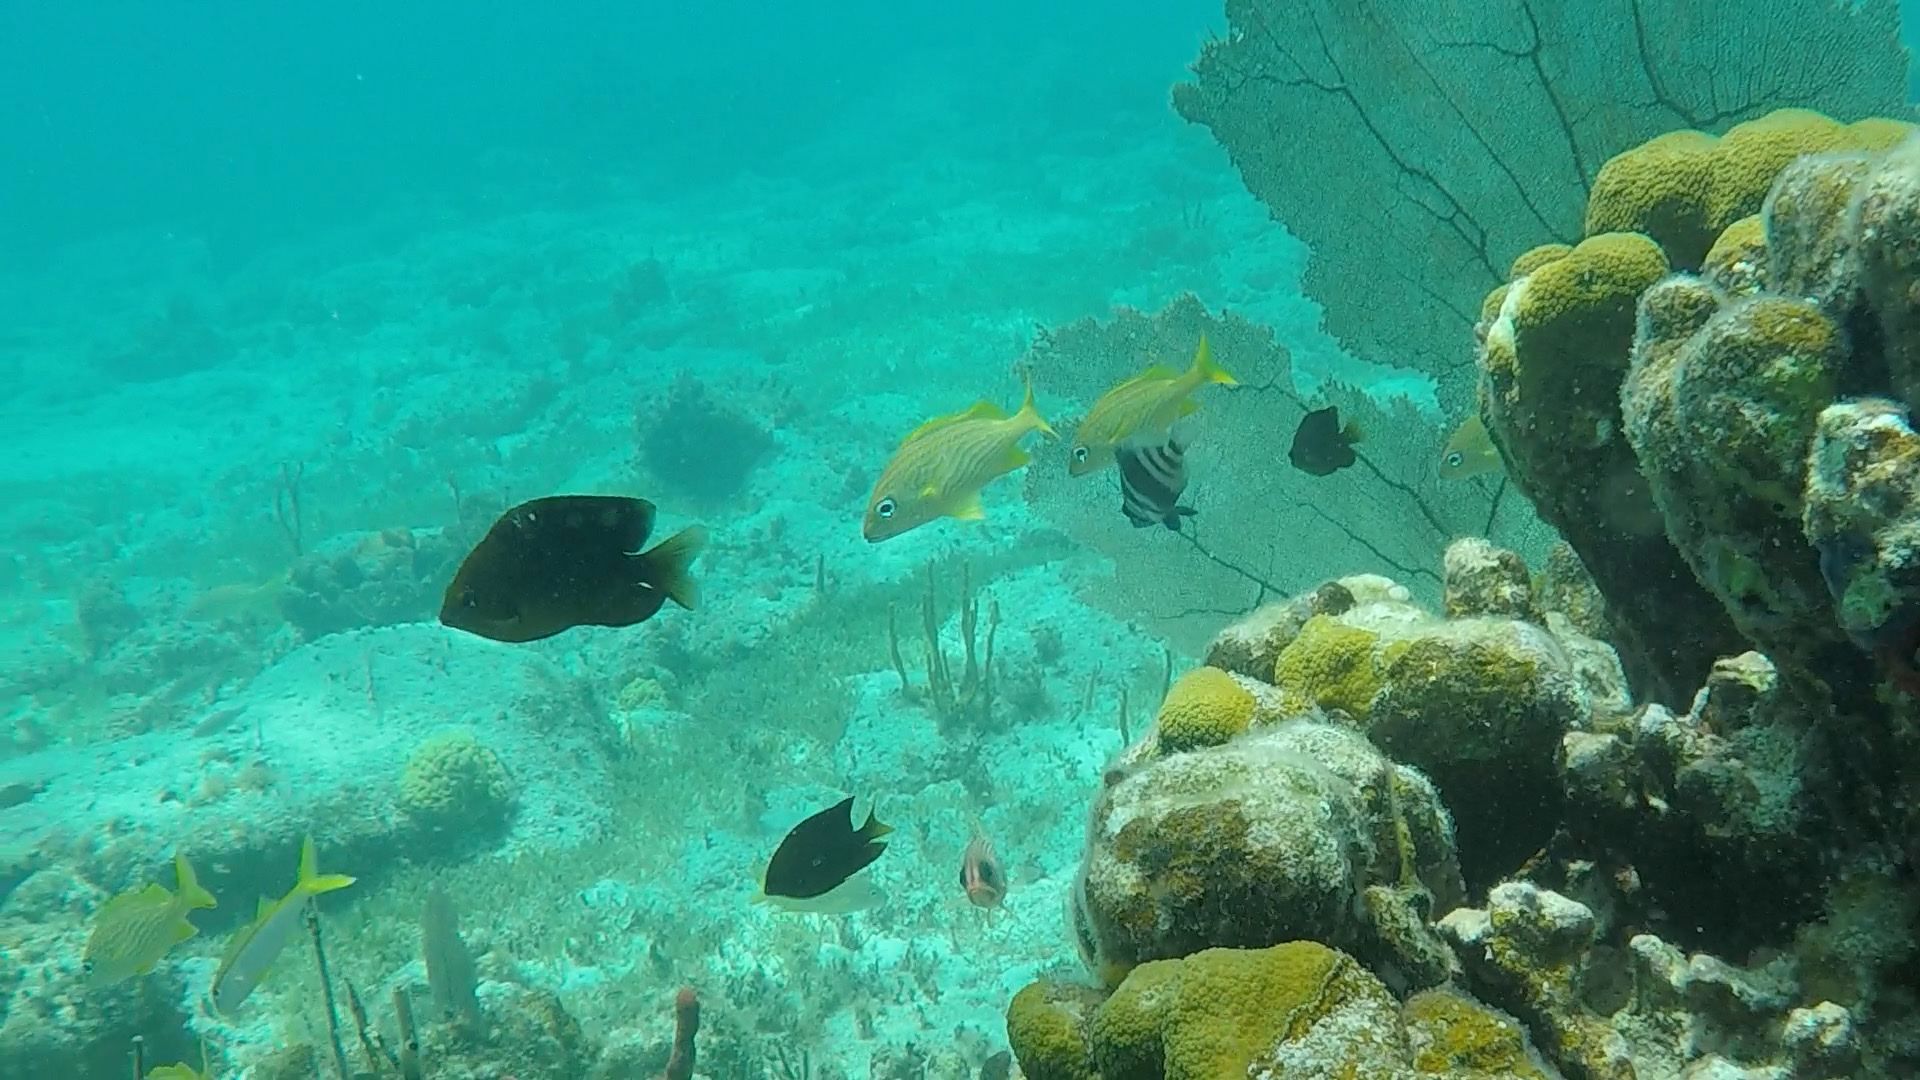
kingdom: Animalia
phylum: Chordata
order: Perciformes
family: Serranidae
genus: Hypoplectrus
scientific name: Hypoplectrus puella
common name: Barred hamlet
